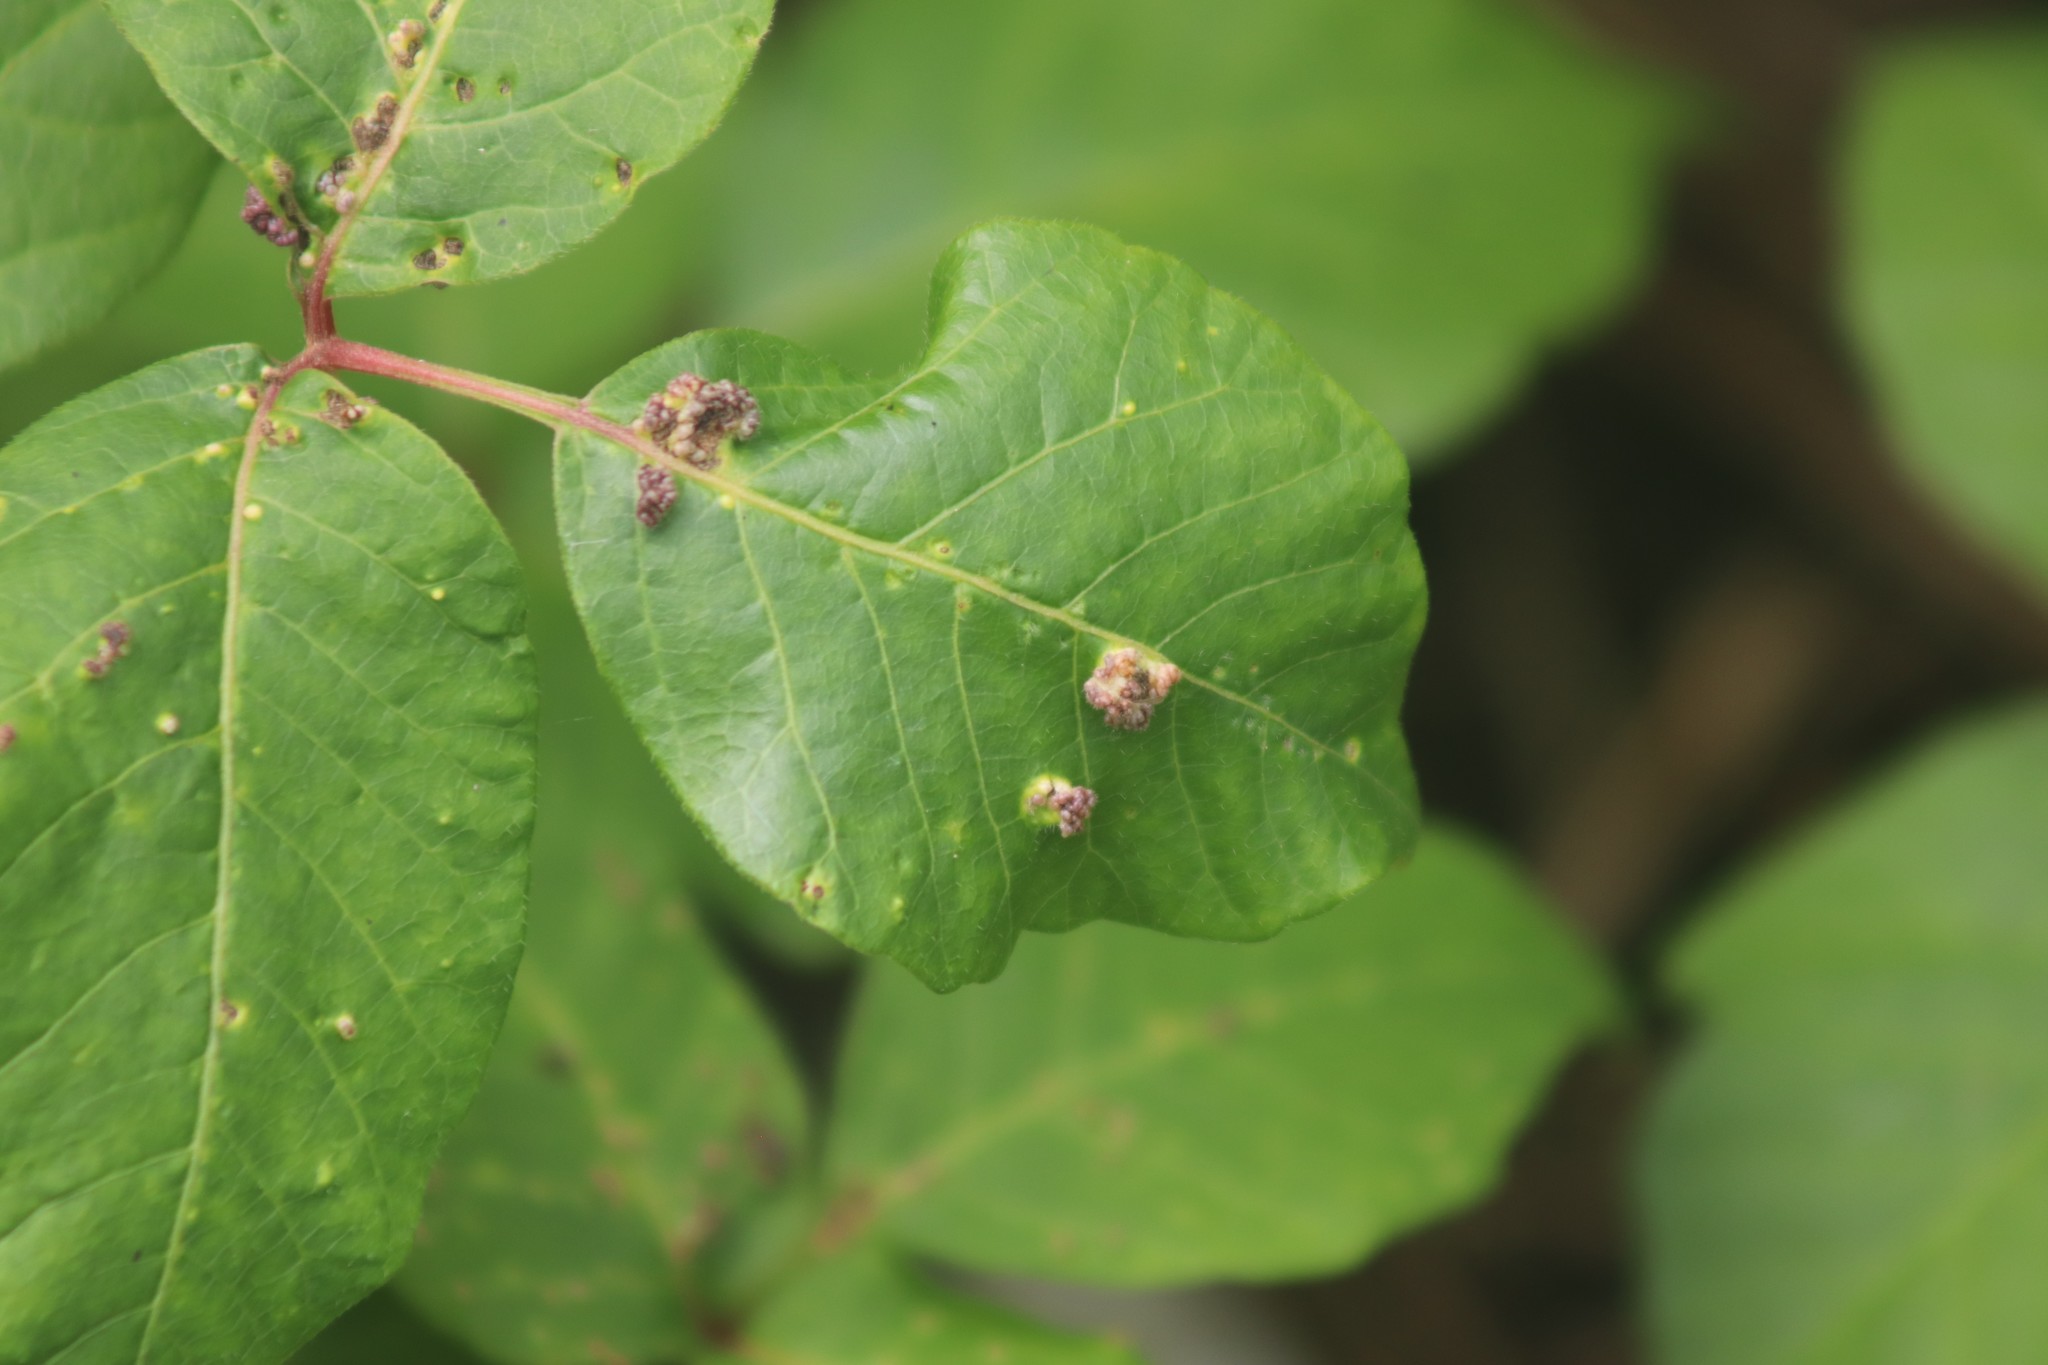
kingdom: Animalia
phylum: Arthropoda
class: Arachnida
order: Trombidiformes
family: Eriophyidae
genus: Aculops
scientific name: Aculops
